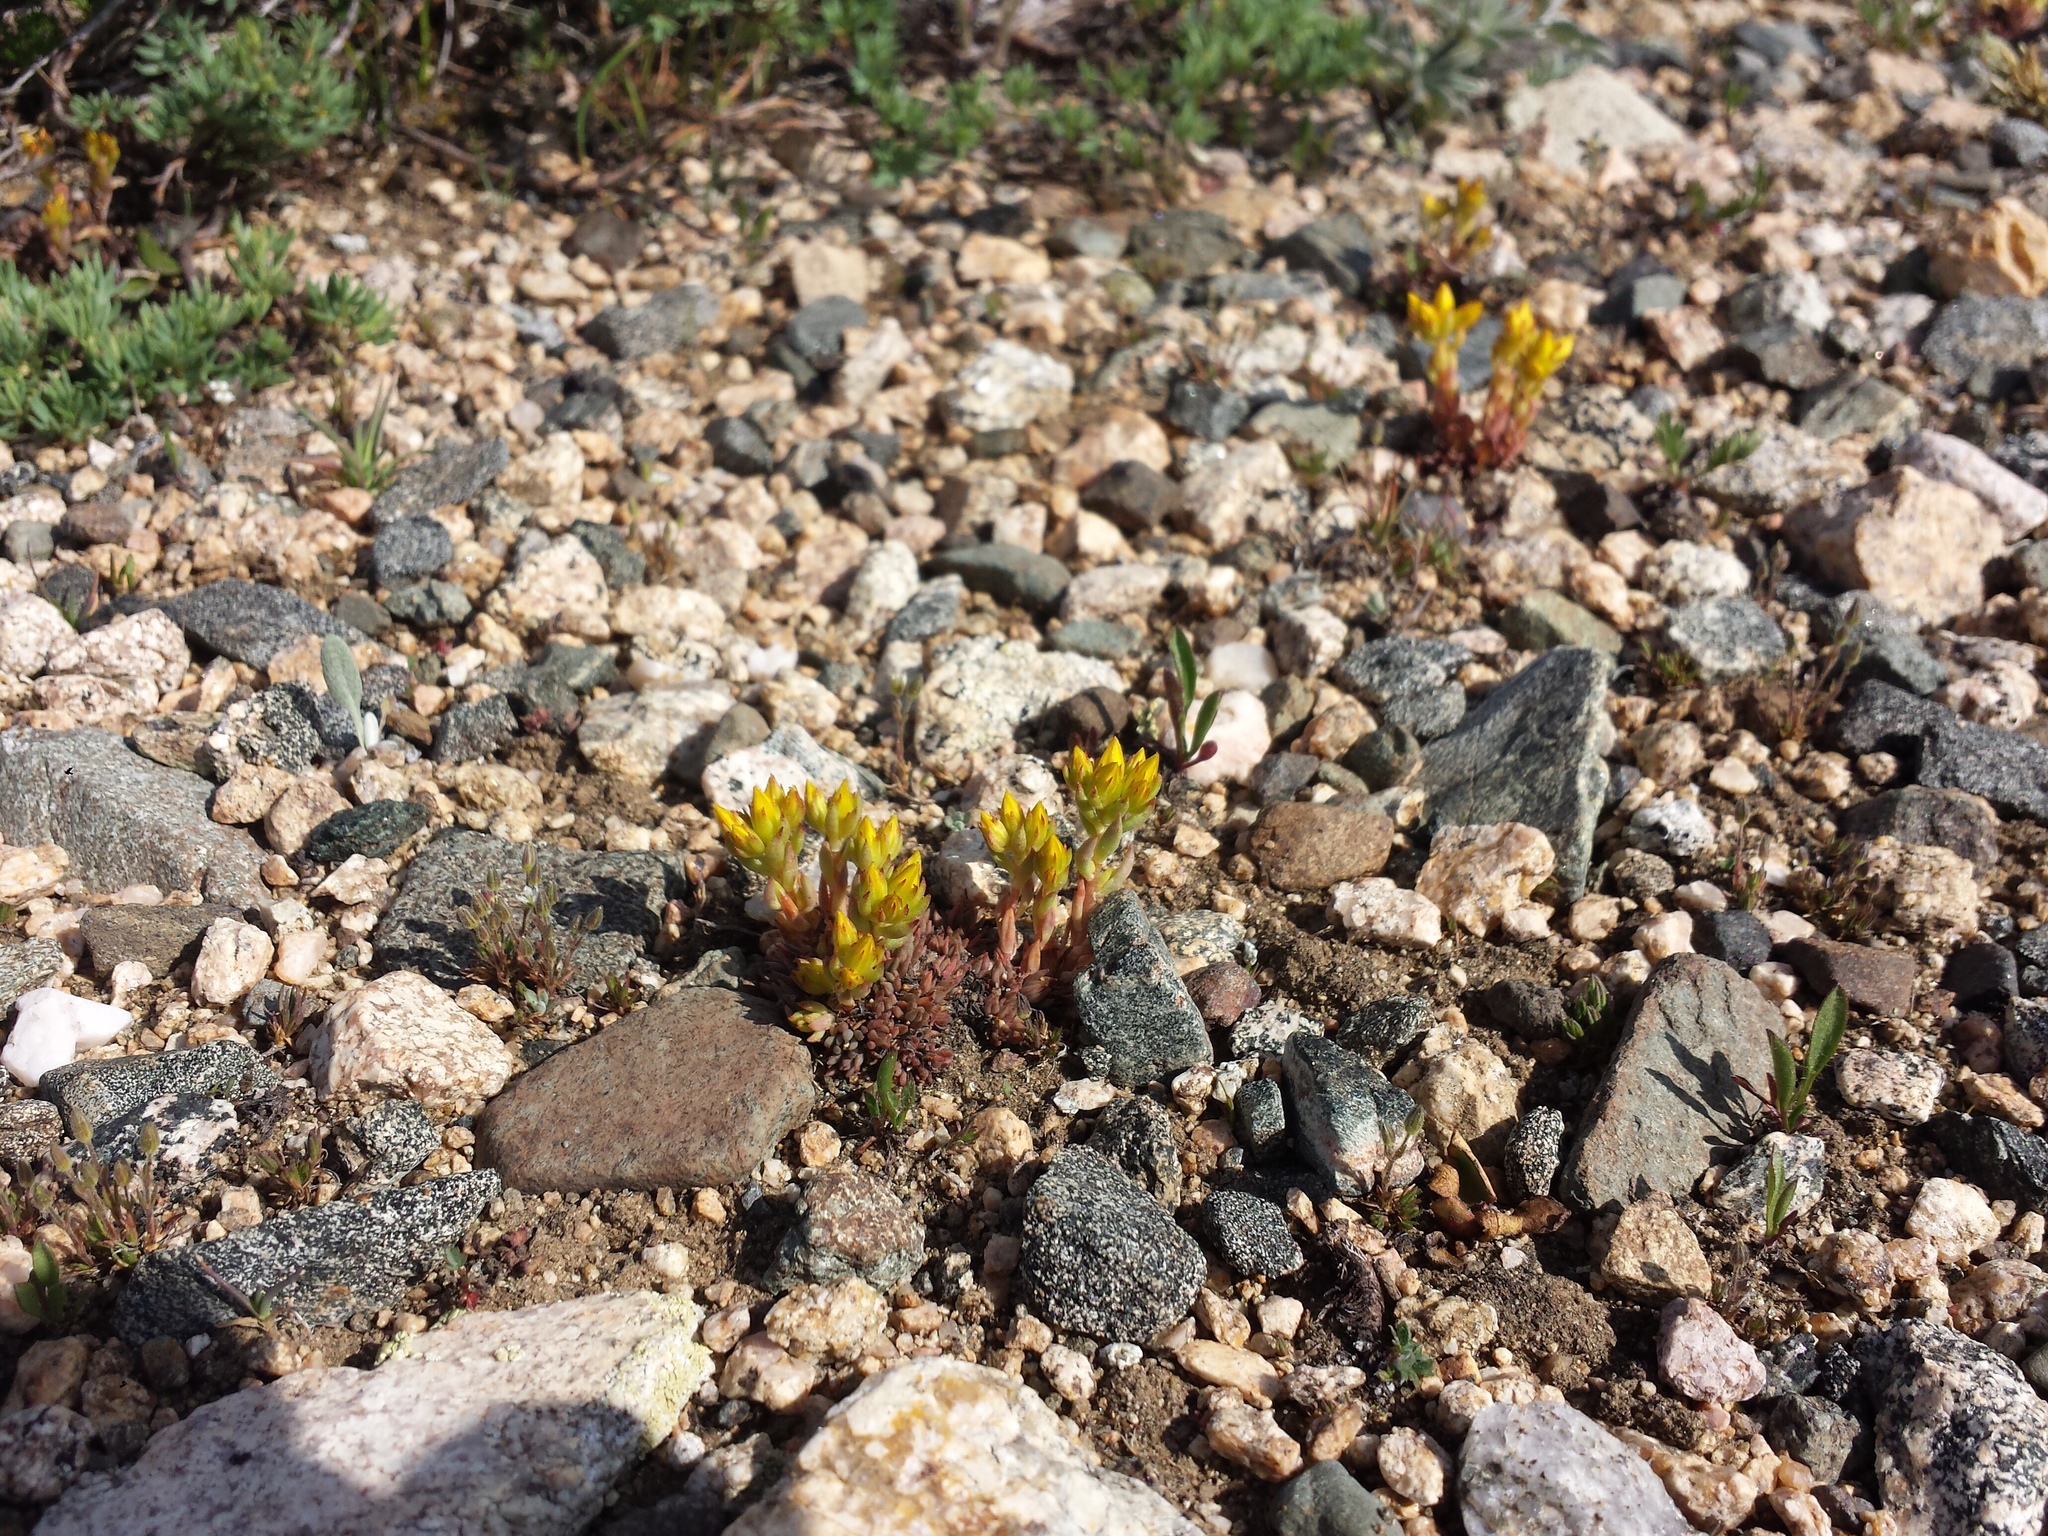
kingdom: Plantae
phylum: Tracheophyta
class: Magnoliopsida
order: Saxifragales
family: Crassulaceae
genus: Sedum
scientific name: Sedum lanceolatum
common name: Common stonecrop
